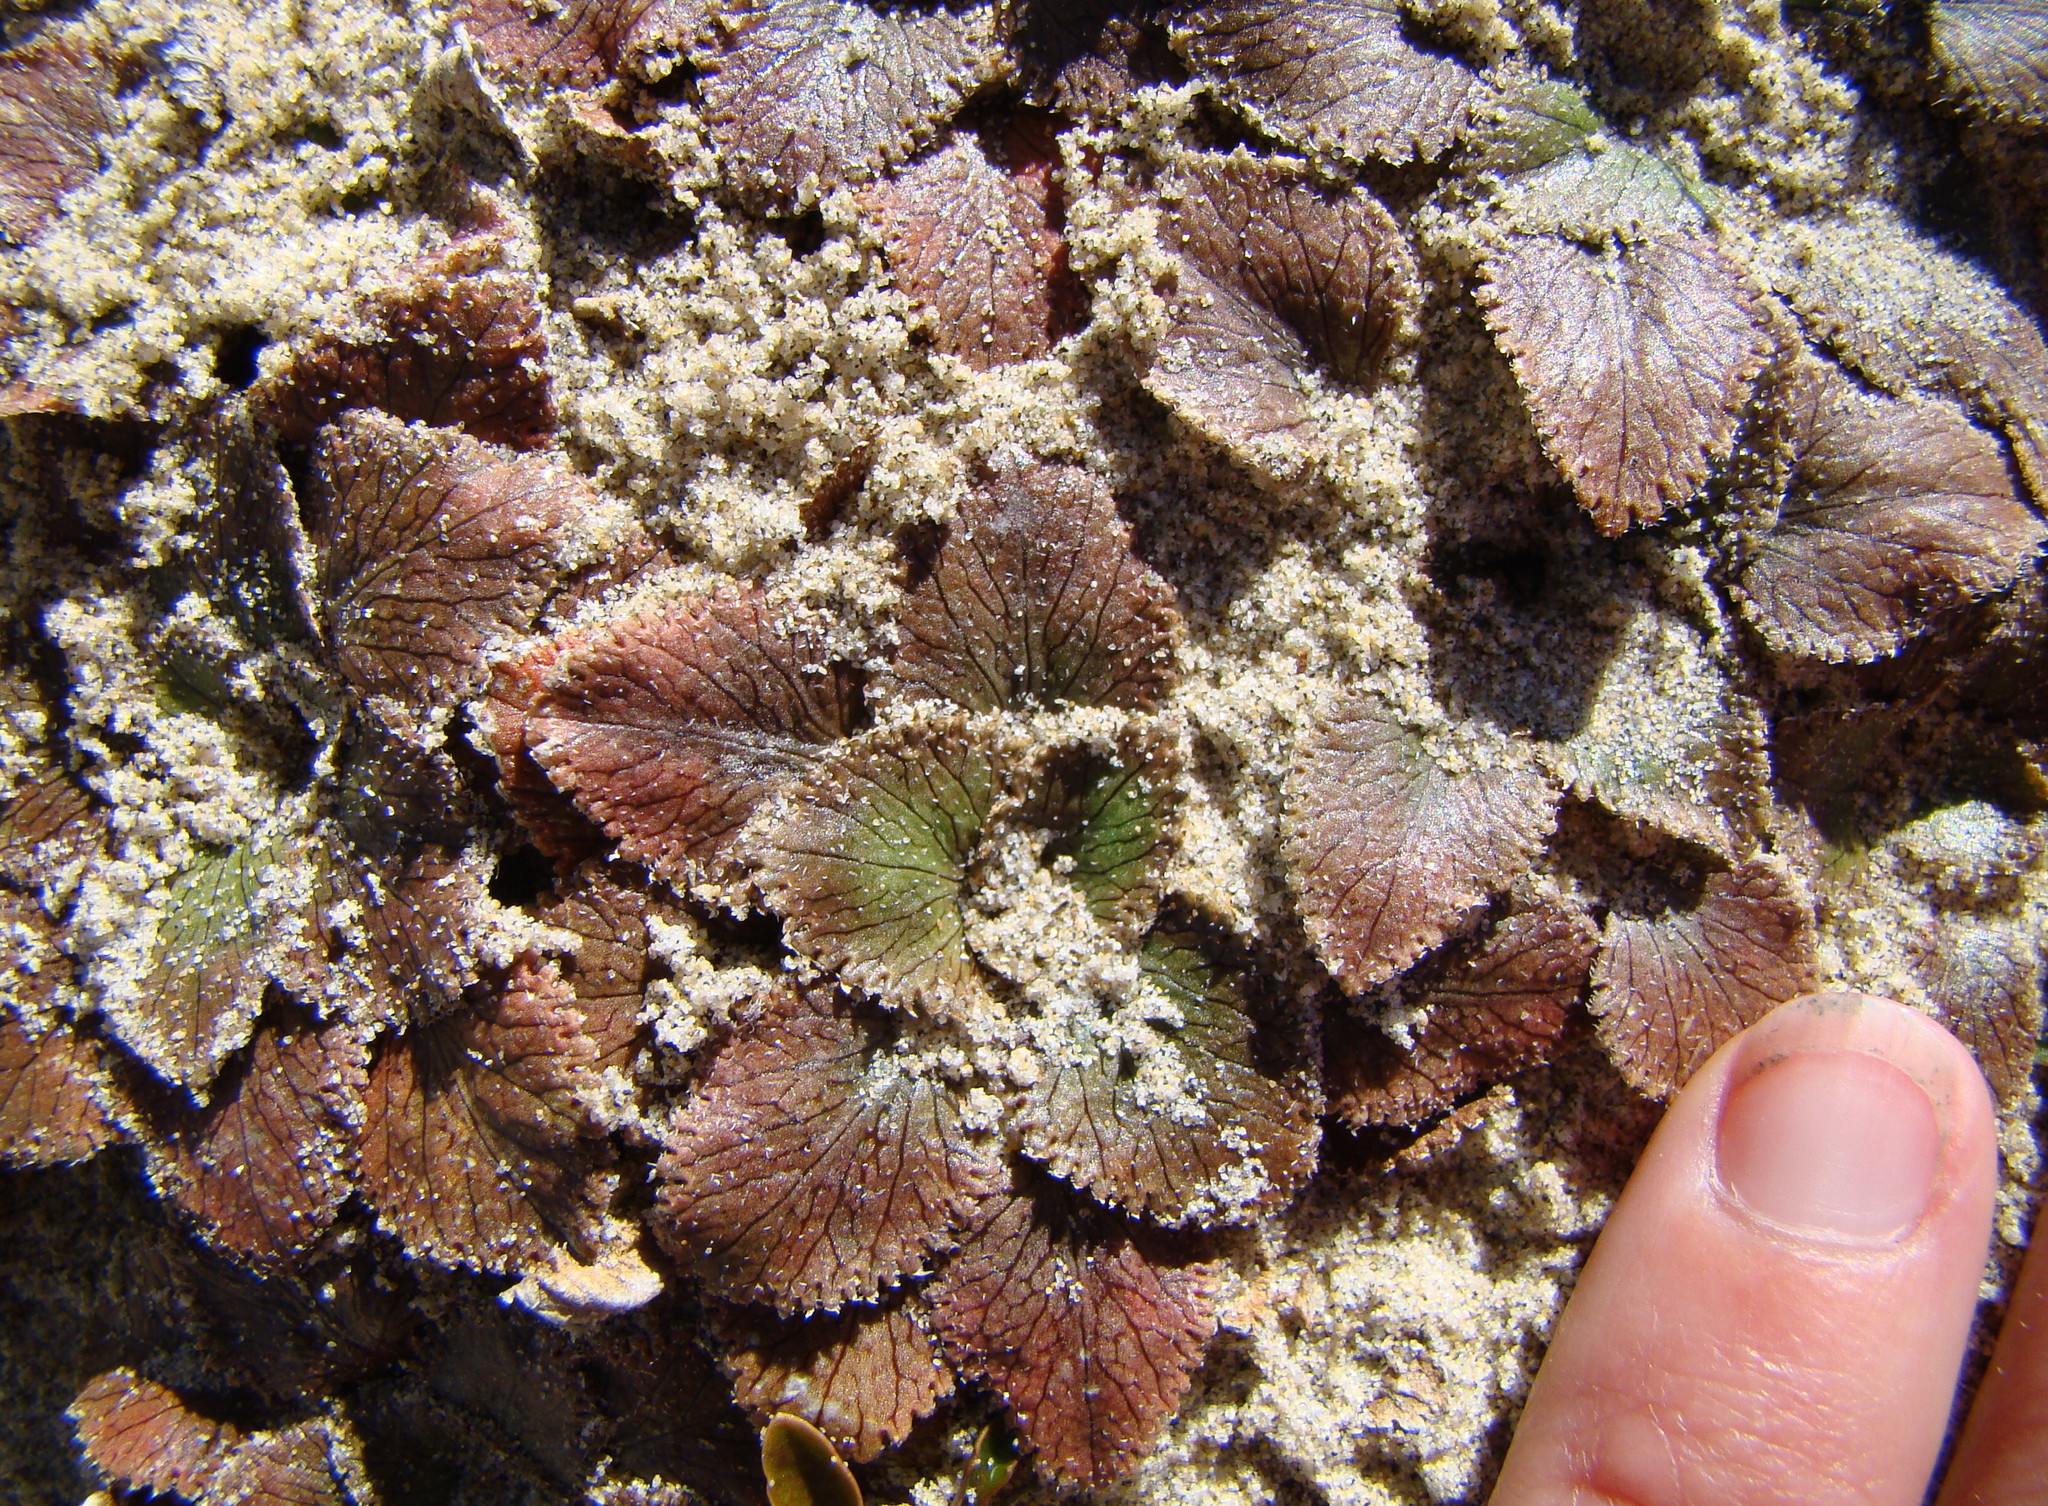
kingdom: Plantae
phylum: Tracheophyta
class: Magnoliopsida
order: Gunnerales
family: Gunneraceae
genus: Gunnera
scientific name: Gunnera hamiltonii
